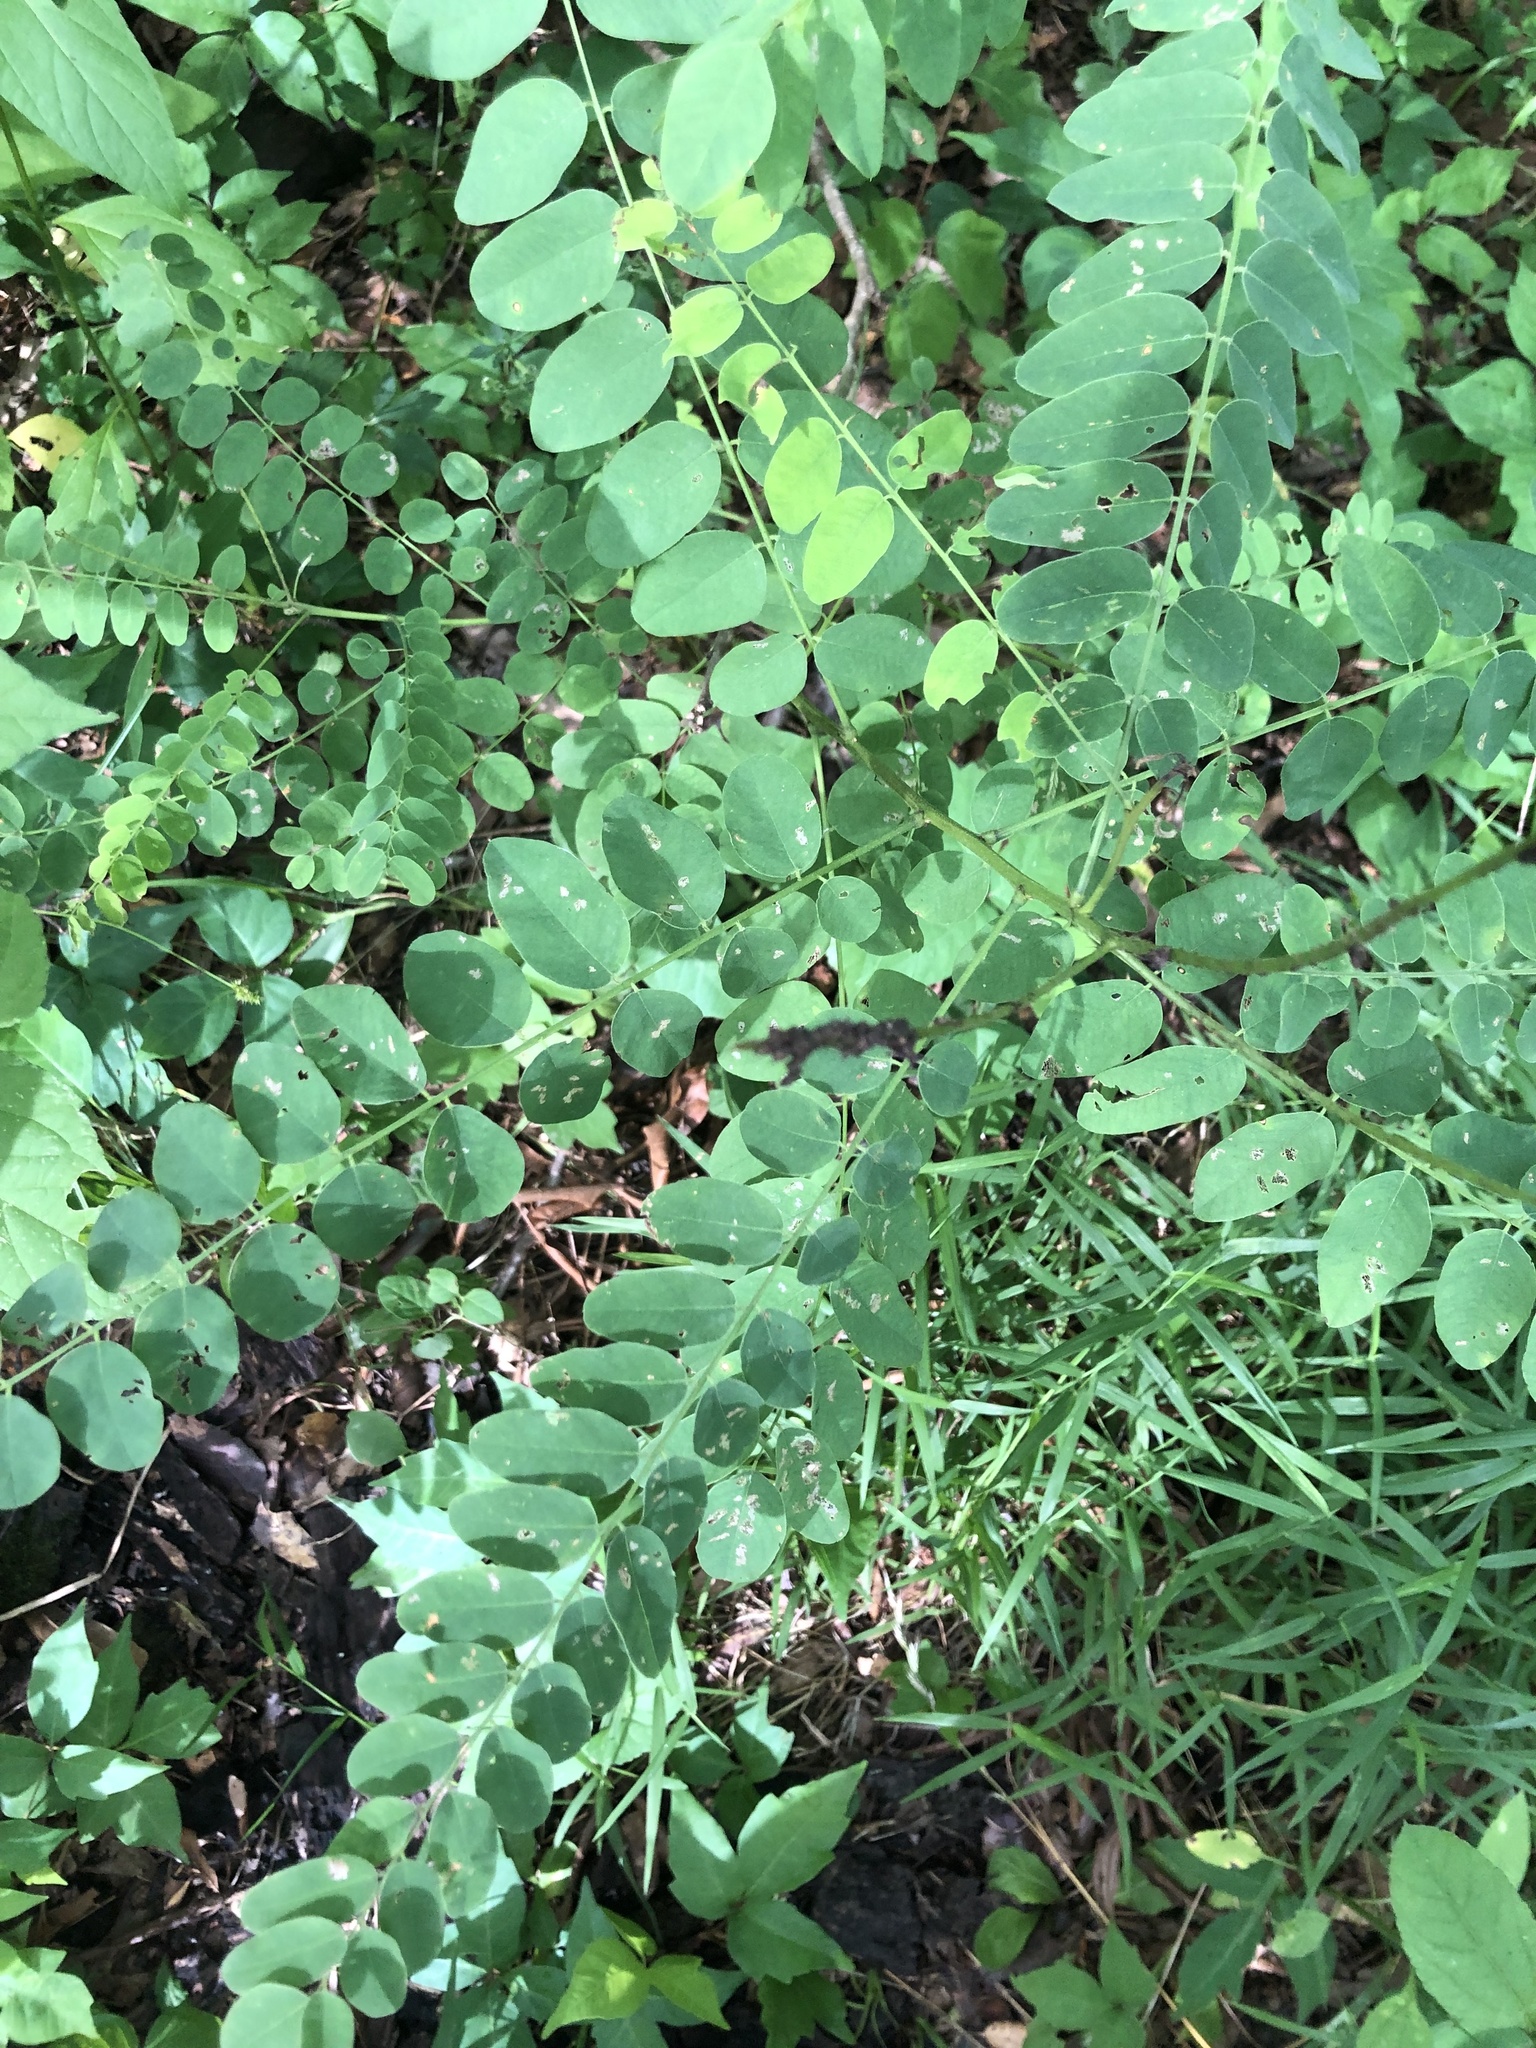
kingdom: Plantae
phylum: Tracheophyta
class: Magnoliopsida
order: Fabales
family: Fabaceae
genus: Robinia
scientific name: Robinia pseudoacacia
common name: Black locust
